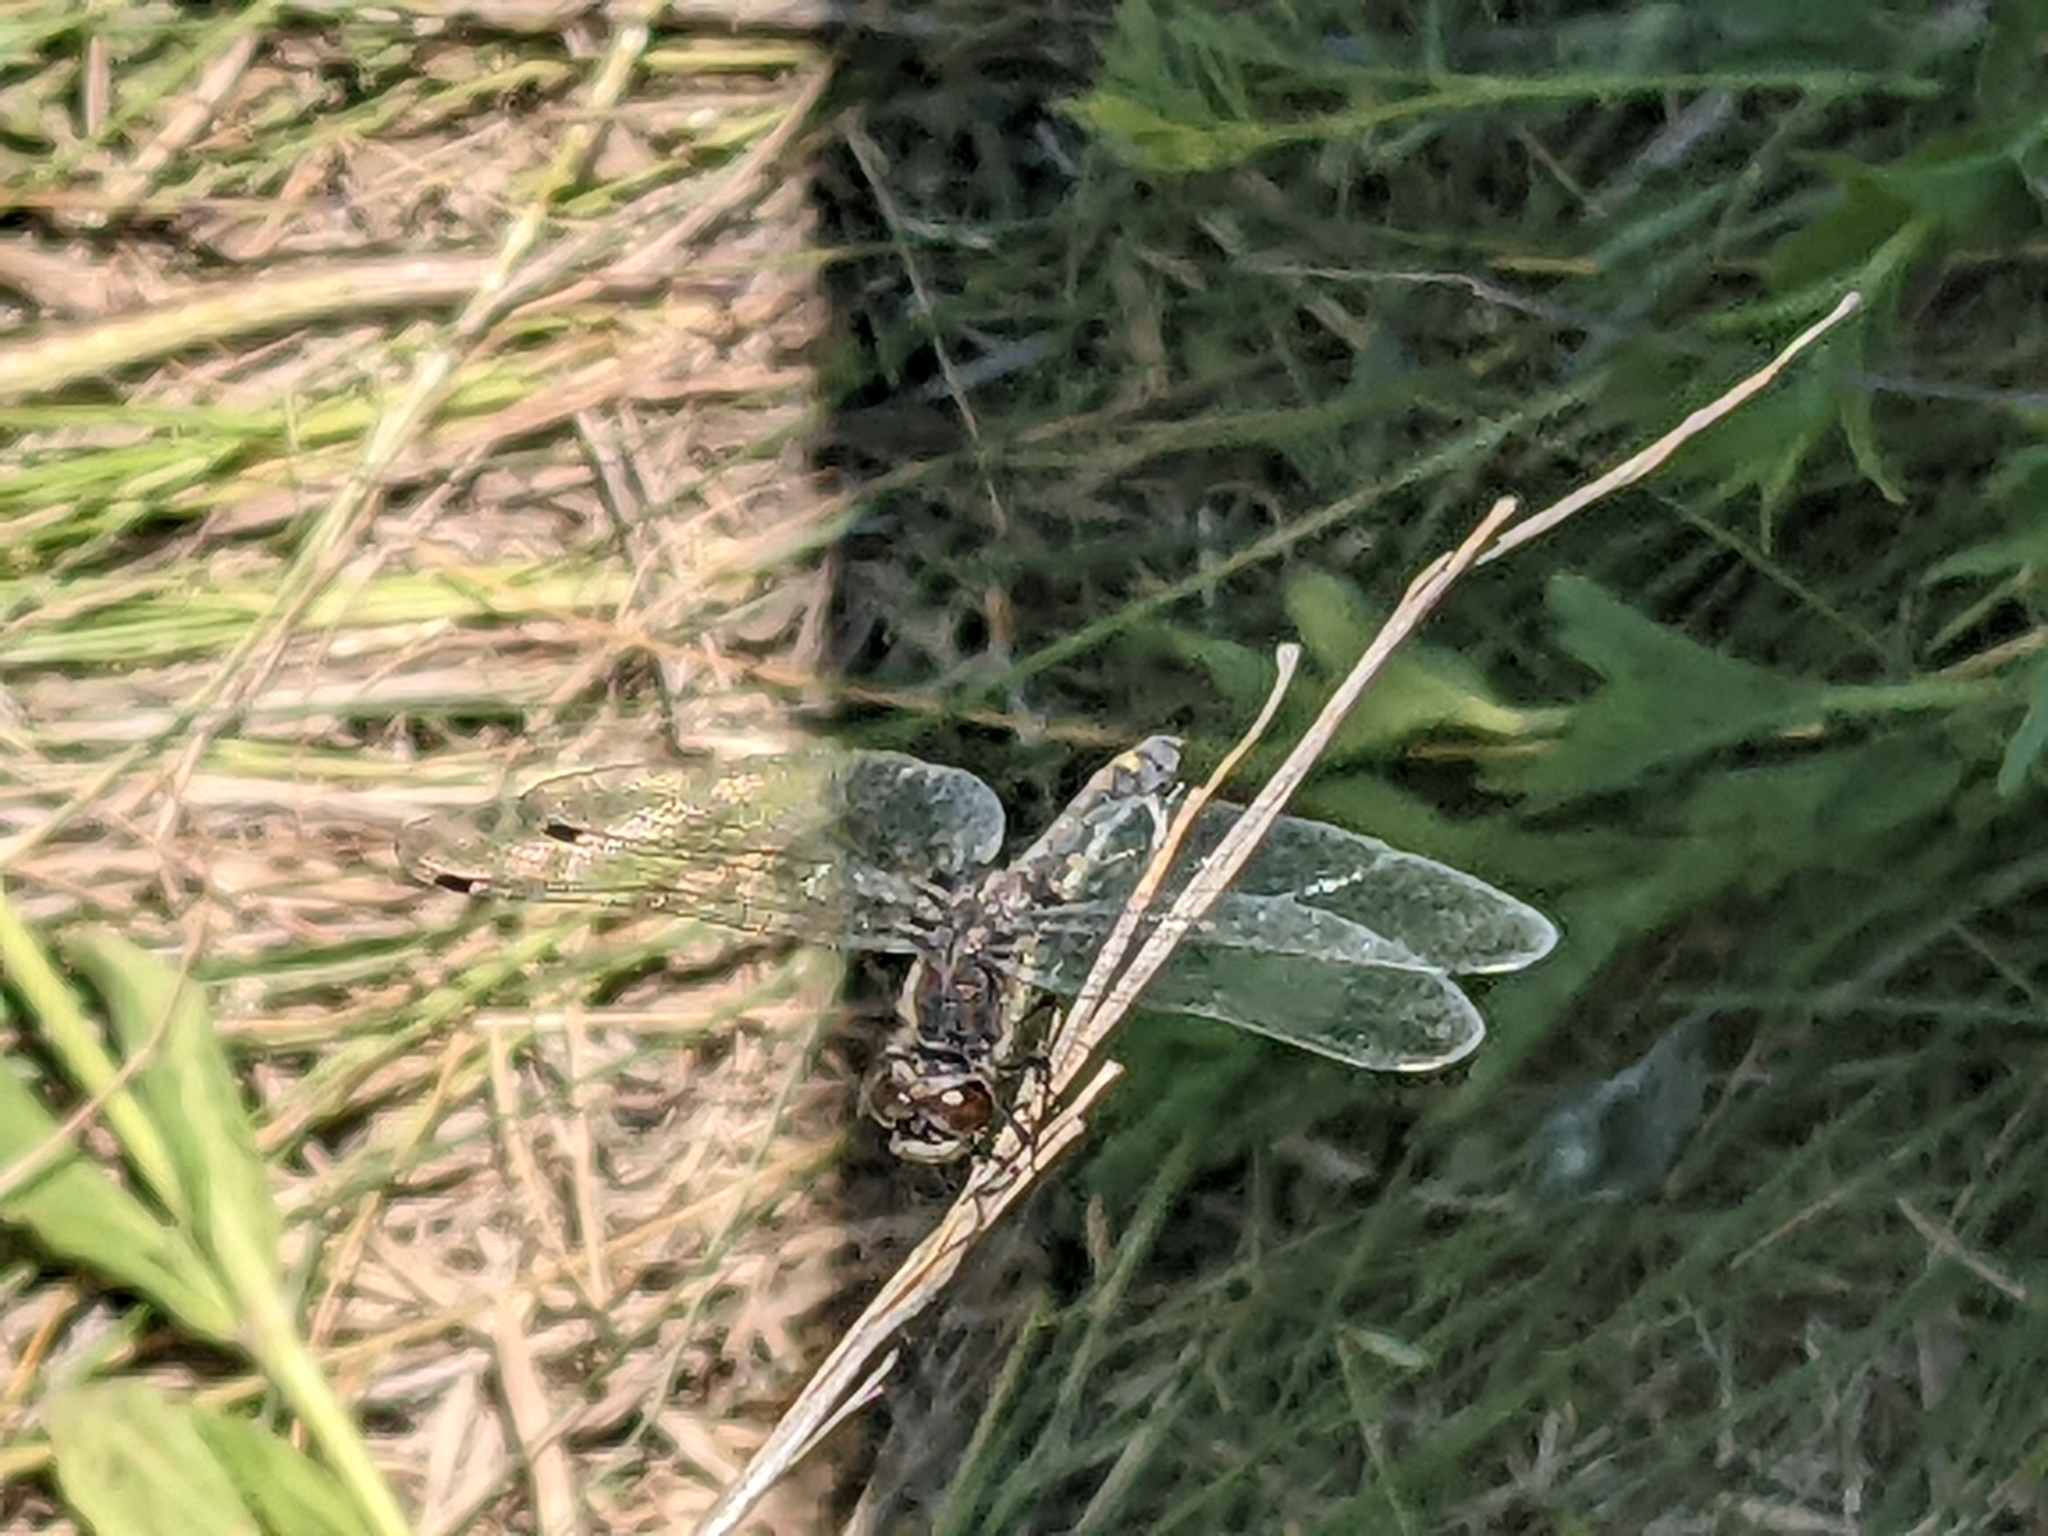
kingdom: Animalia
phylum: Arthropoda
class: Insecta
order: Odonata
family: Libellulidae
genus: Leucorrhinia
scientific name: Leucorrhinia intacta
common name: Dot-tailed whiteface
